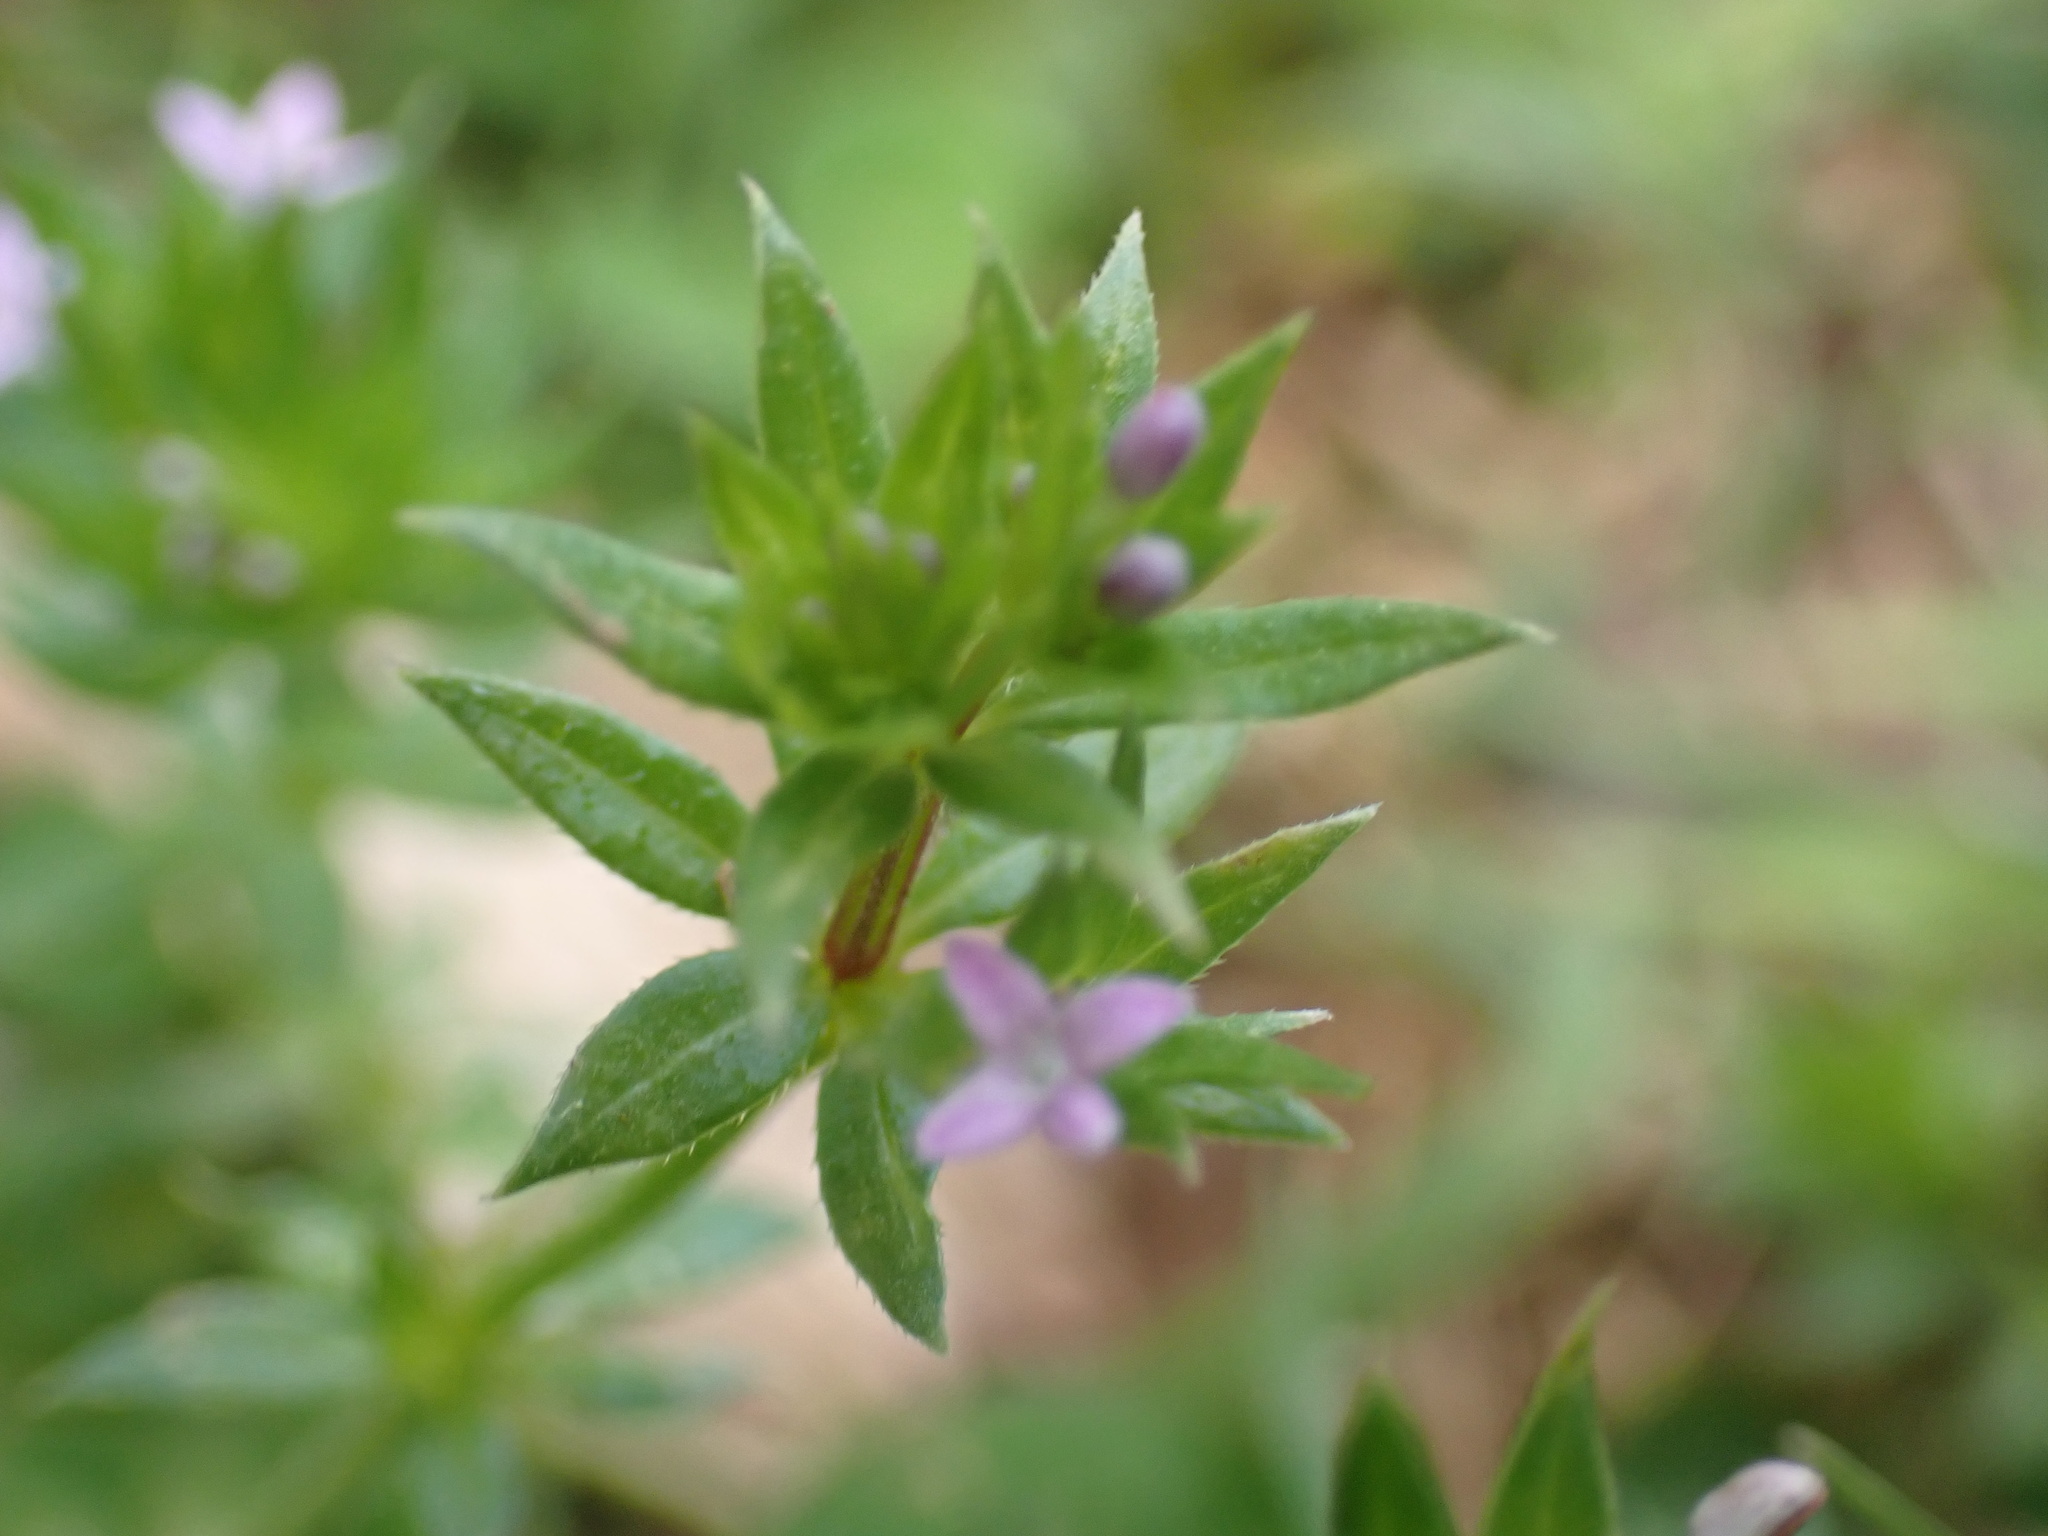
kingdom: Plantae
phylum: Tracheophyta
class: Magnoliopsida
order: Gentianales
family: Rubiaceae
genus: Sherardia
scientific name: Sherardia arvensis
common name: Field madder
